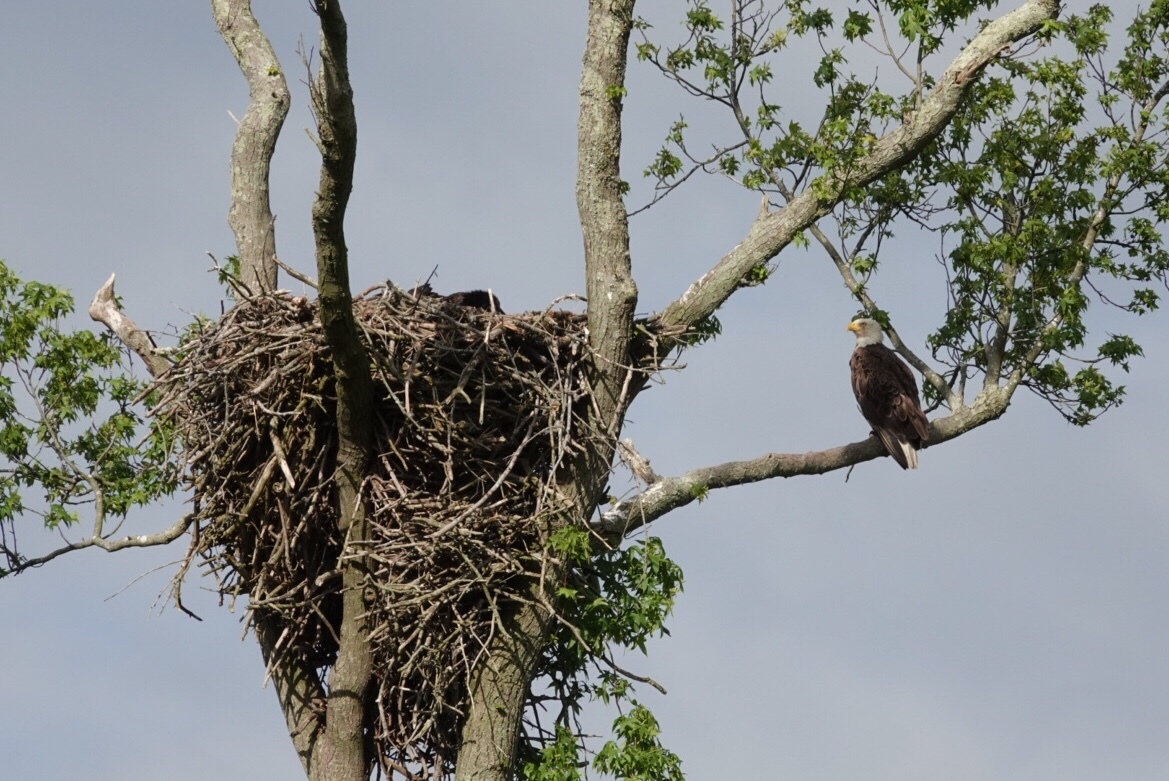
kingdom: Animalia
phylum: Chordata
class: Aves
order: Accipitriformes
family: Accipitridae
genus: Haliaeetus
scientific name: Haliaeetus leucocephalus
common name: Bald eagle
